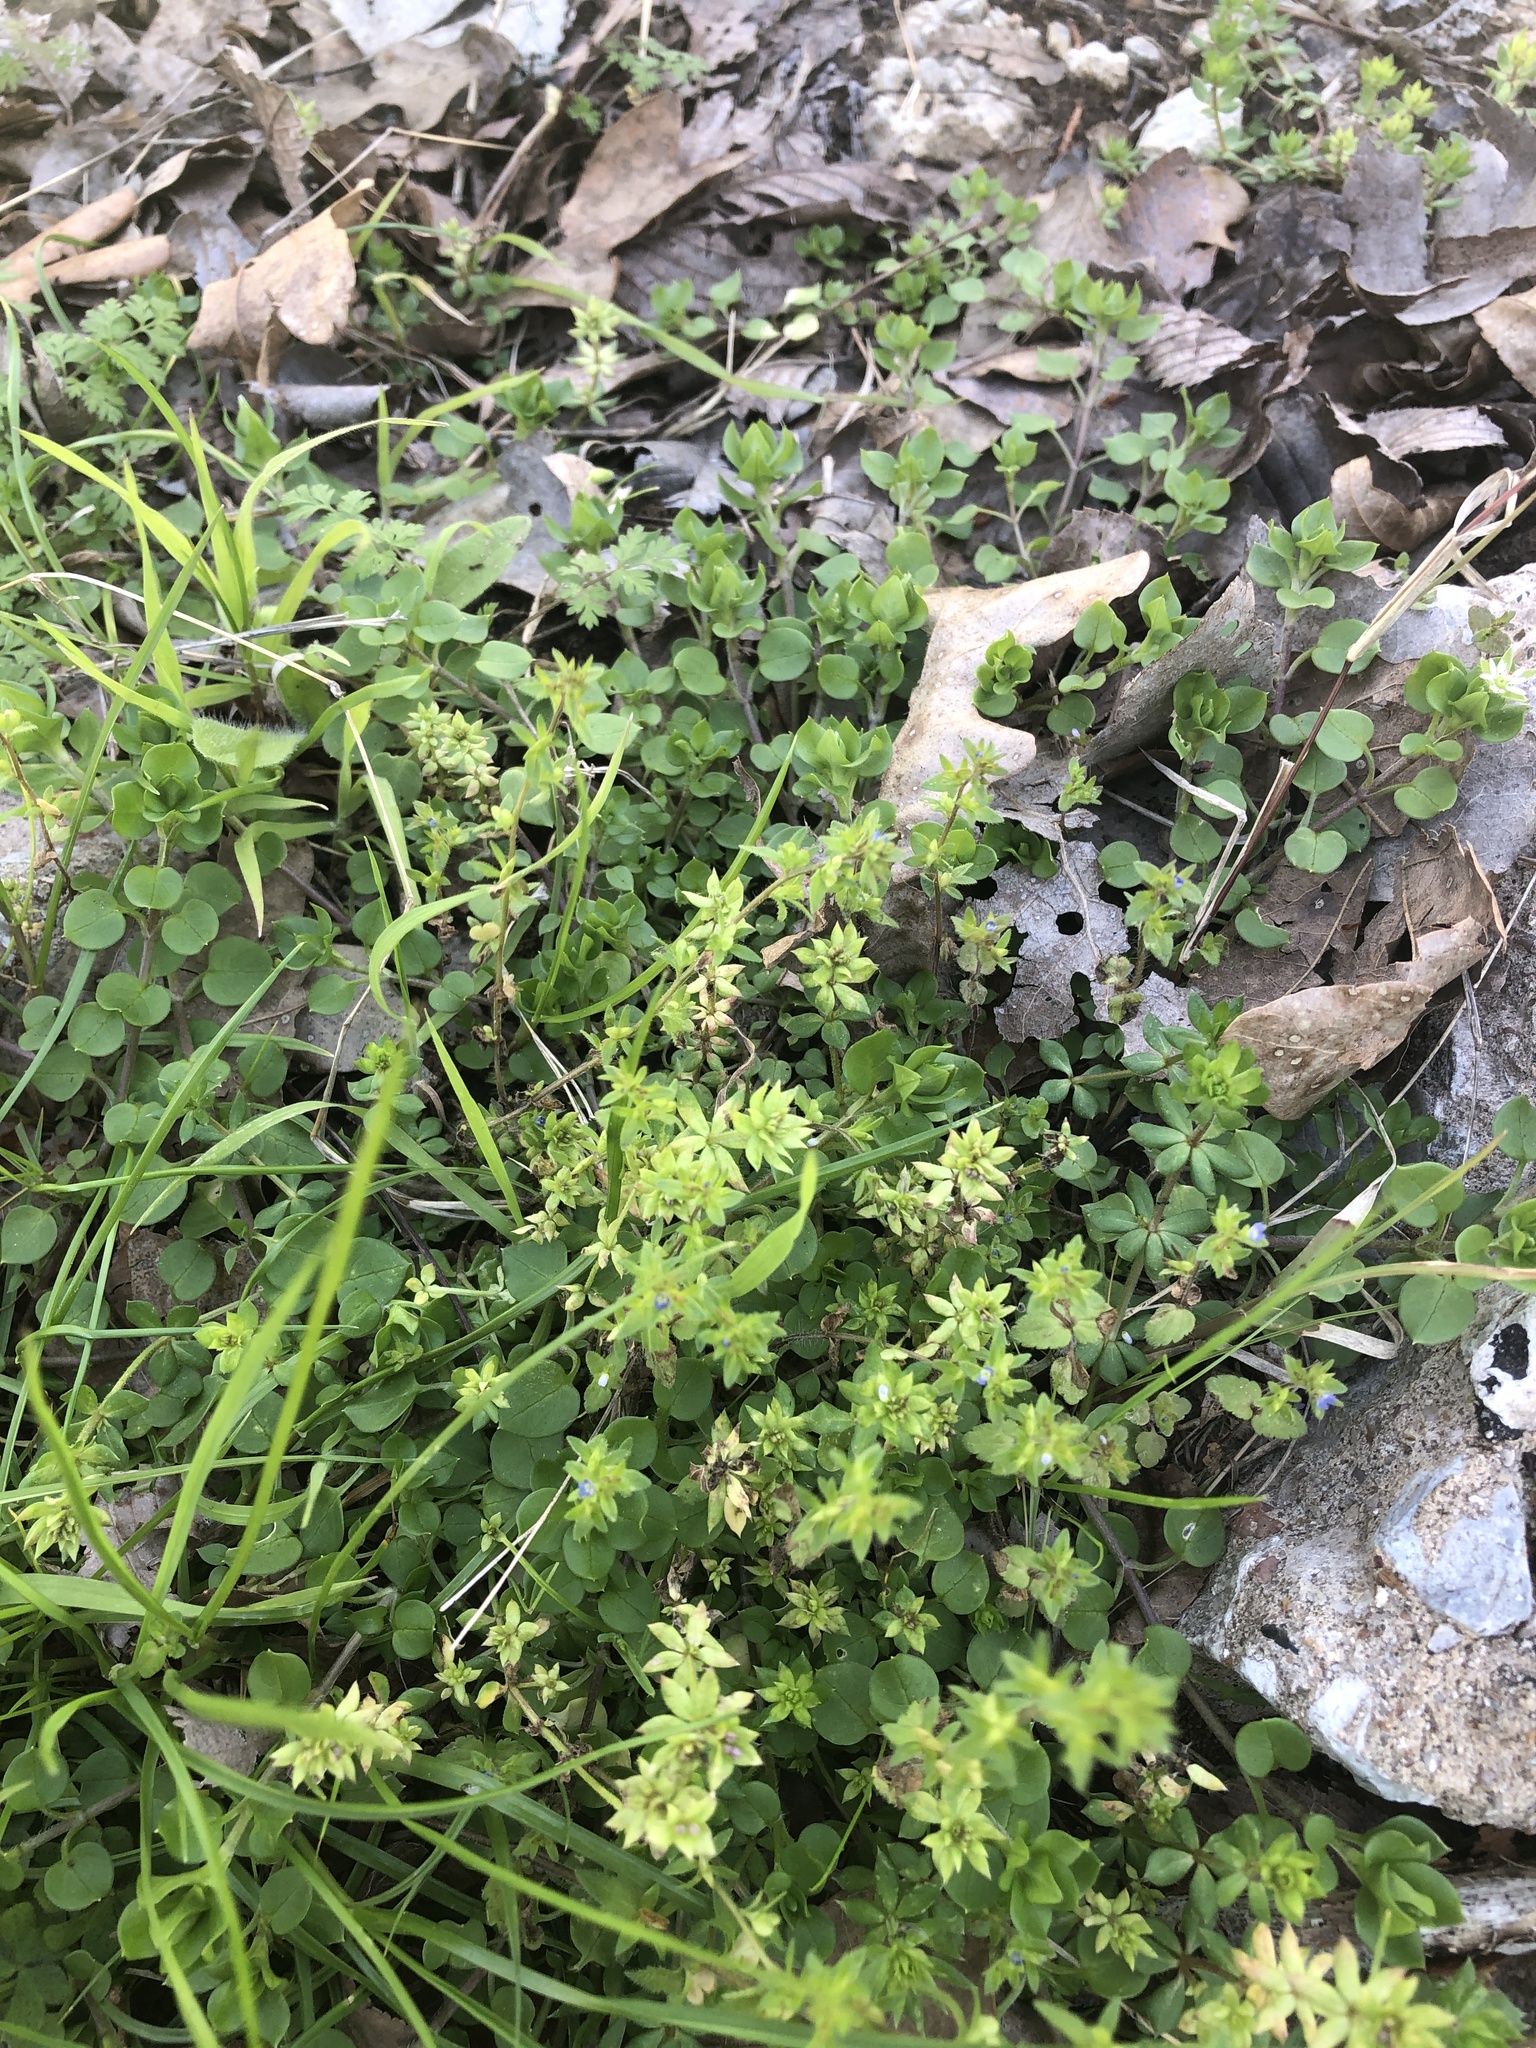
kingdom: Plantae
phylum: Tracheophyta
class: Magnoliopsida
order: Lamiales
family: Plantaginaceae
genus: Veronica
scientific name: Veronica arvensis
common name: Corn speedwell
